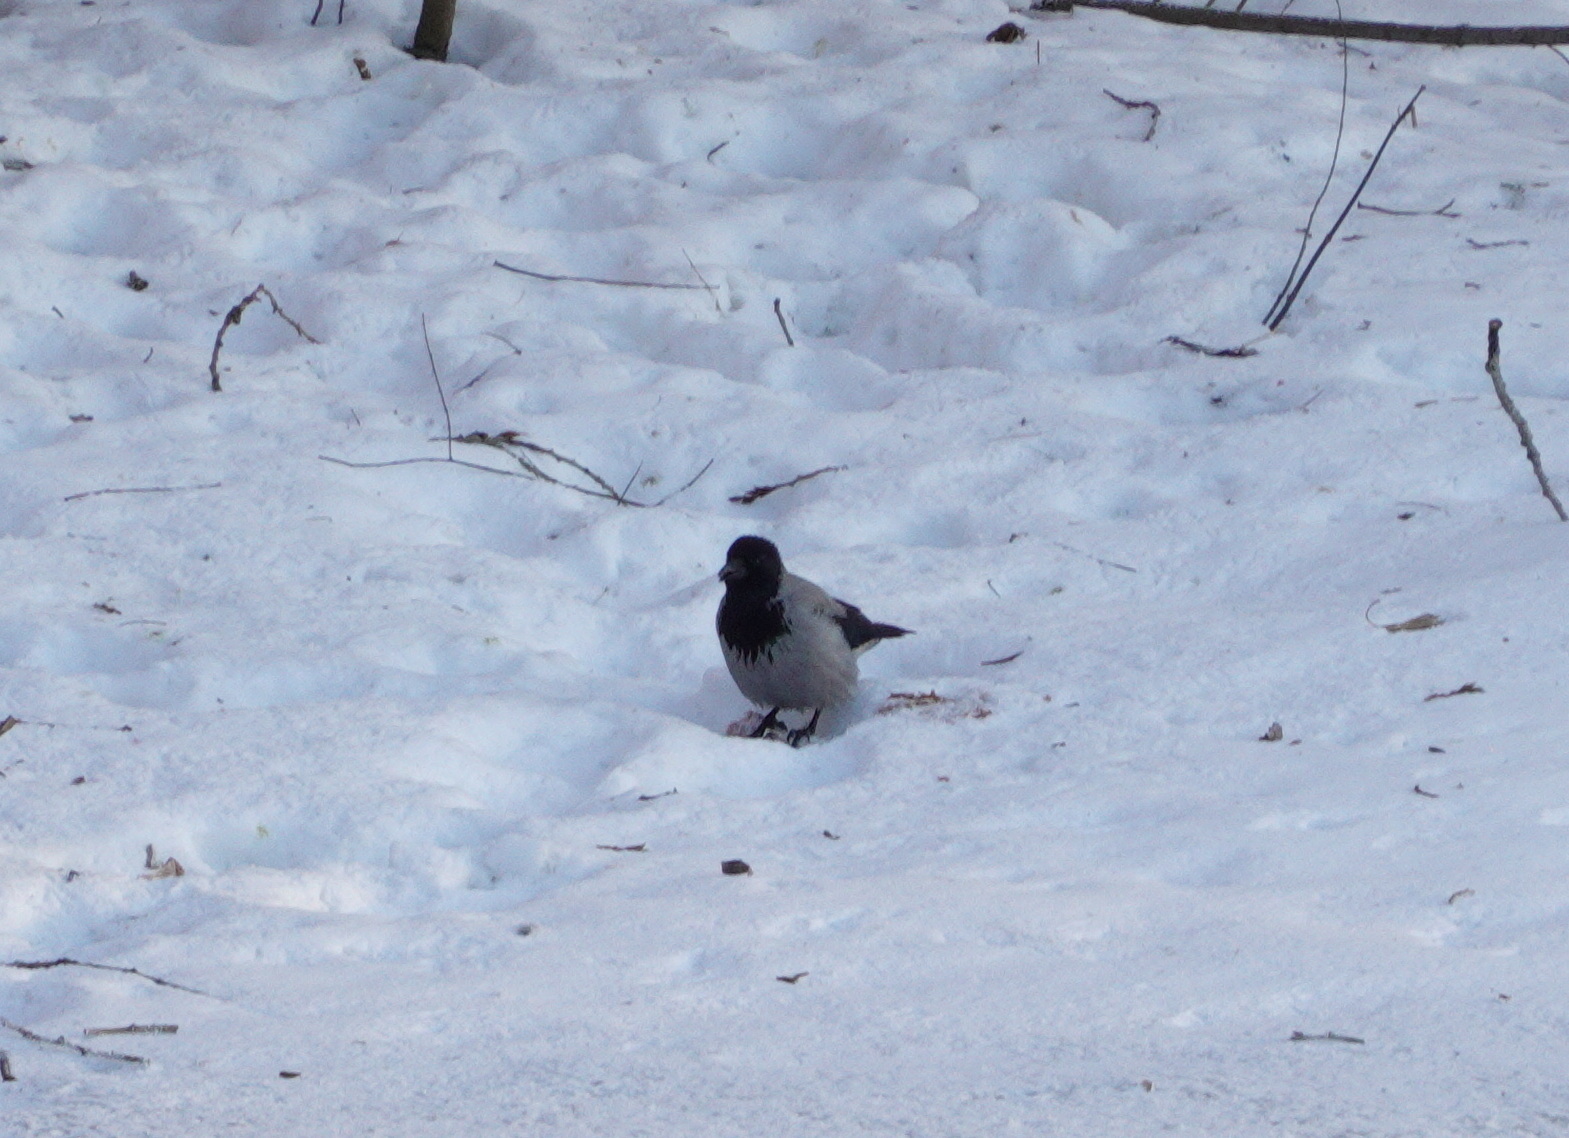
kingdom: Animalia
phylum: Chordata
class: Aves
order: Passeriformes
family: Corvidae
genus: Corvus
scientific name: Corvus cornix
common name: Hooded crow
